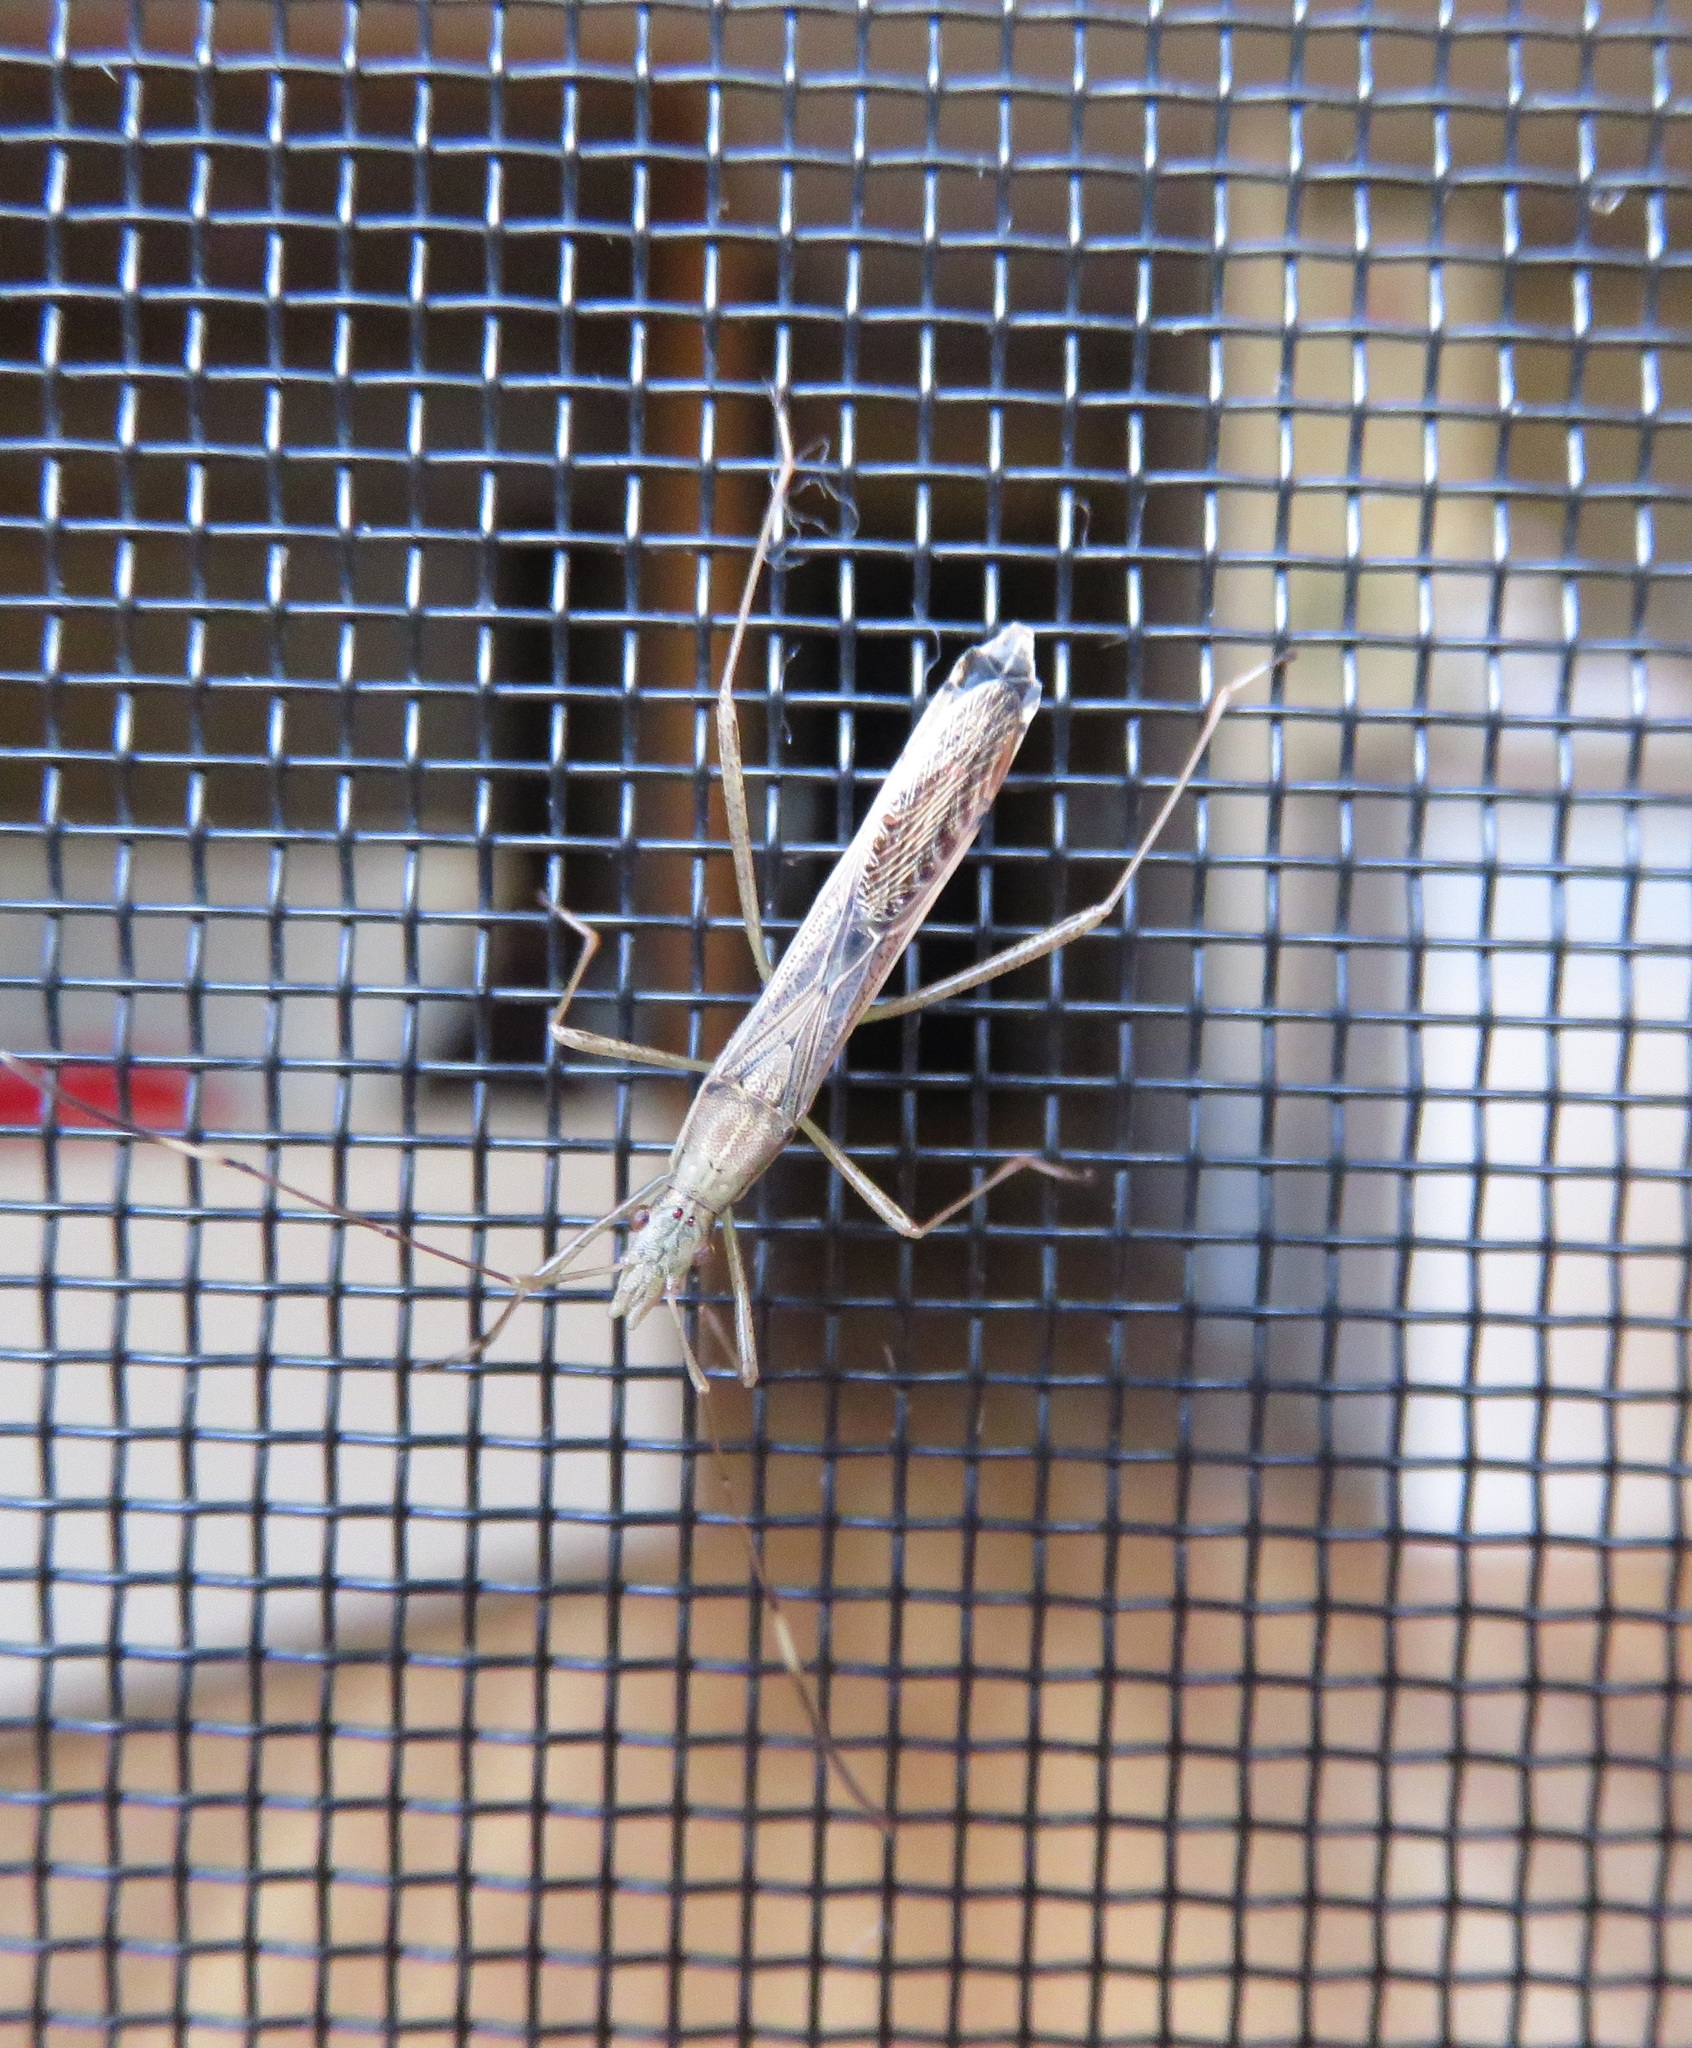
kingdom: Animalia
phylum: Arthropoda
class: Insecta
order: Hemiptera
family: Alydidae
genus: Paraplesius
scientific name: Paraplesius vulgaris
